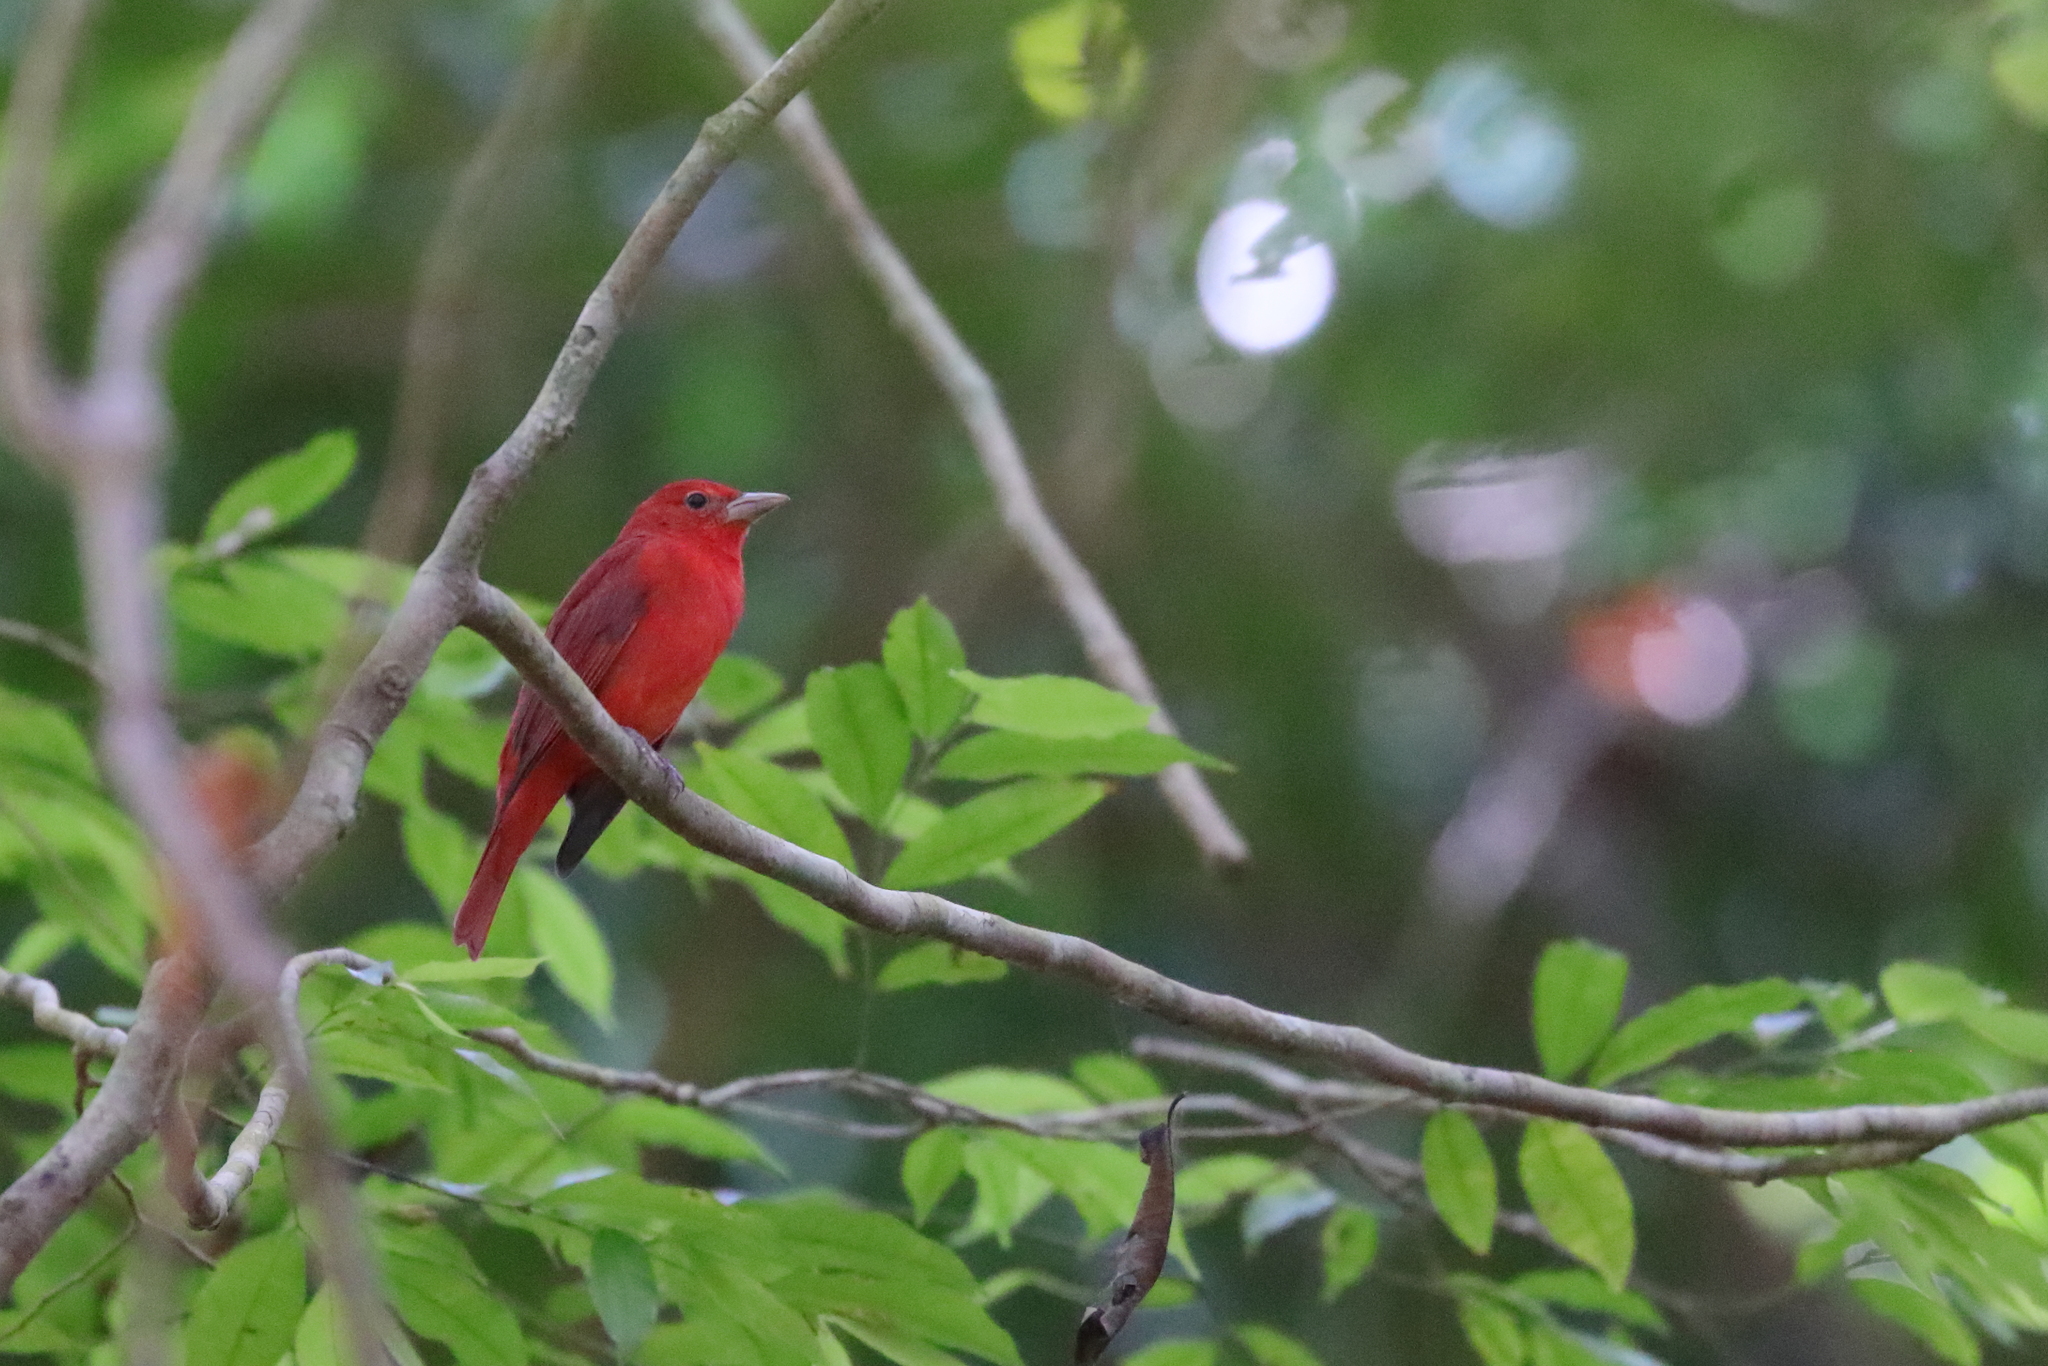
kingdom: Animalia
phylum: Chordata
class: Aves
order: Passeriformes
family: Cardinalidae
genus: Piranga
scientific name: Piranga rubra
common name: Summer tanager
